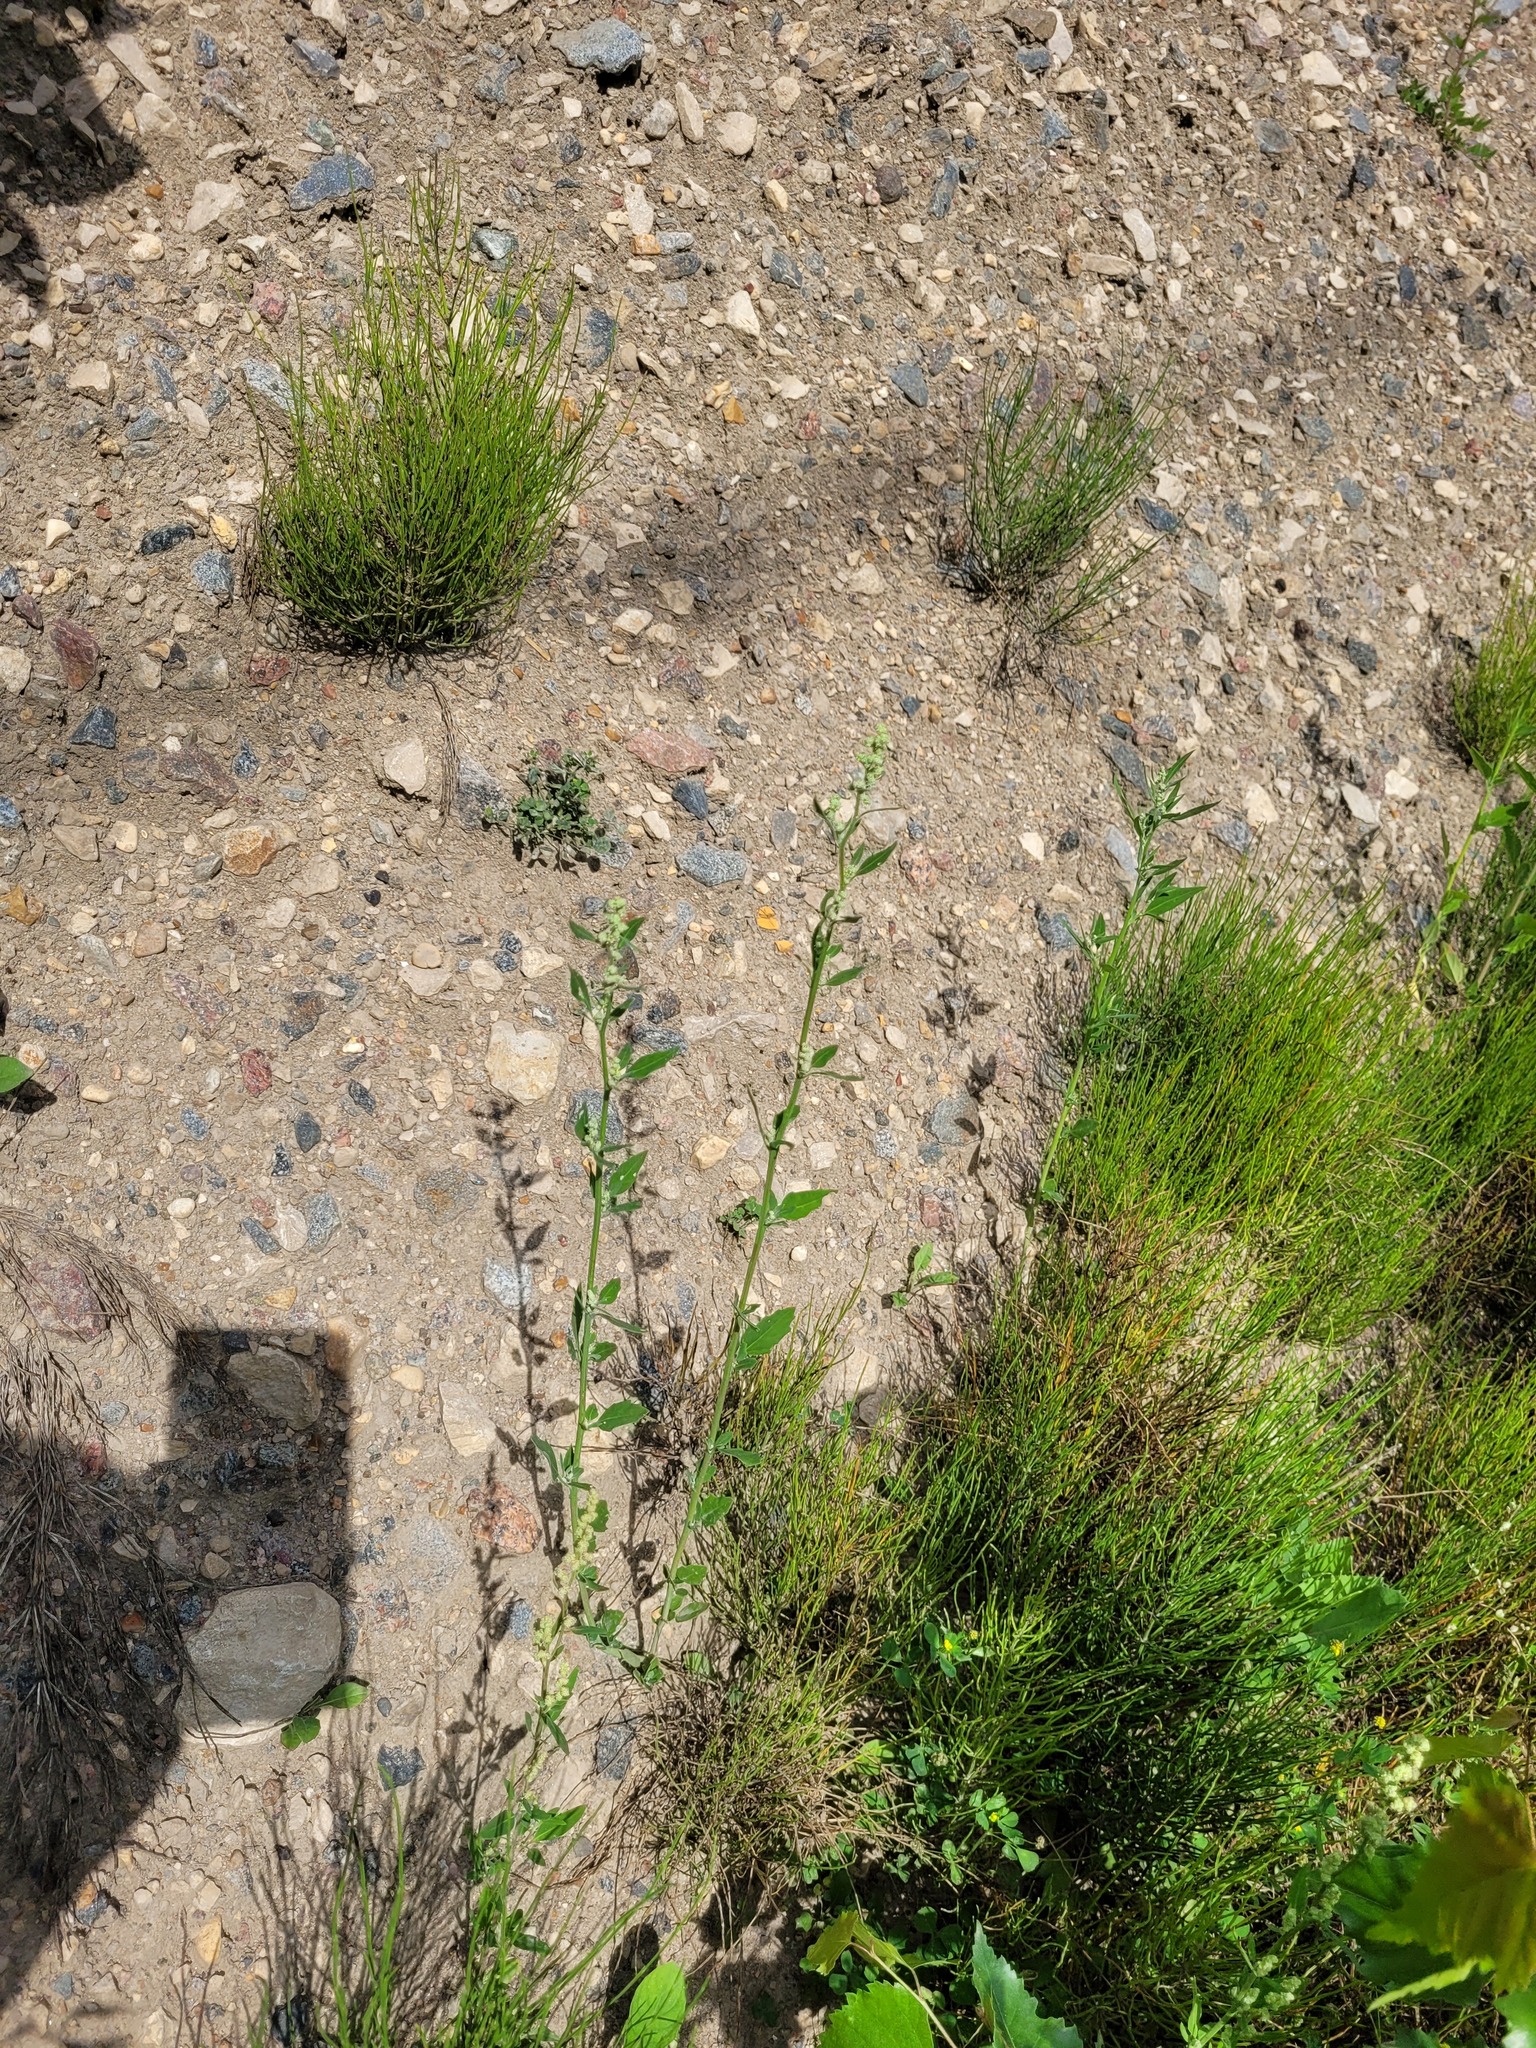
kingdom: Plantae
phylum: Tracheophyta
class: Magnoliopsida
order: Caryophyllales
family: Amaranthaceae
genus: Chenopodium
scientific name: Chenopodium album
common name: Fat-hen
